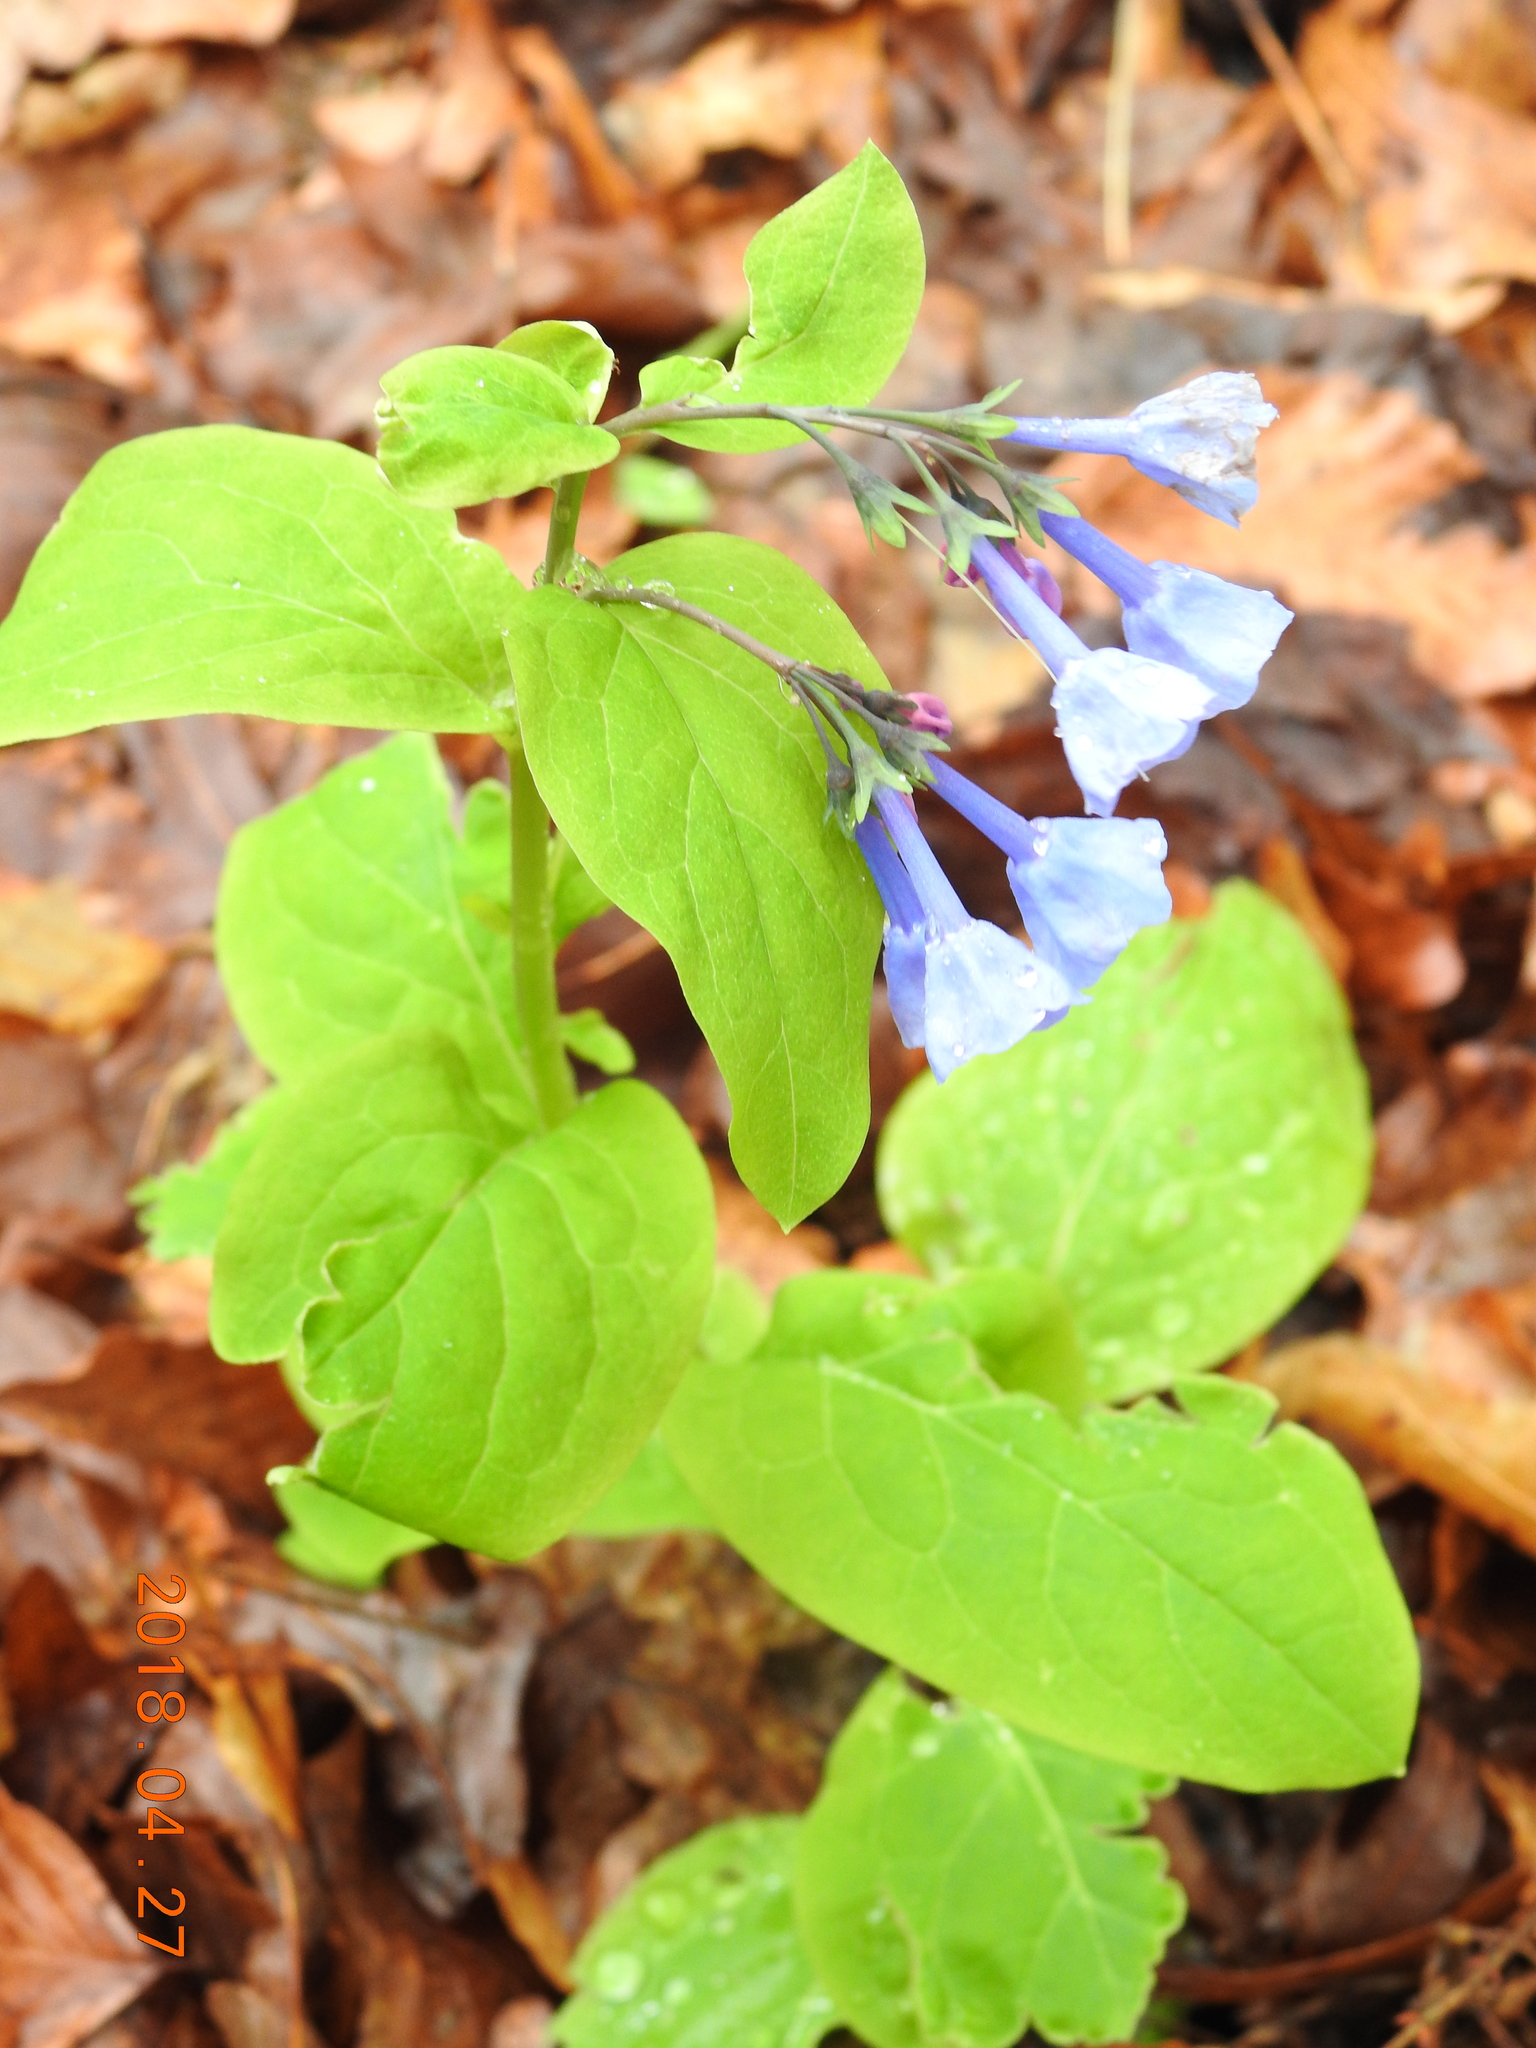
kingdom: Plantae
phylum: Tracheophyta
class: Magnoliopsida
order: Boraginales
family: Boraginaceae
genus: Mertensia
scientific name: Mertensia virginica
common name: Virginia bluebells
